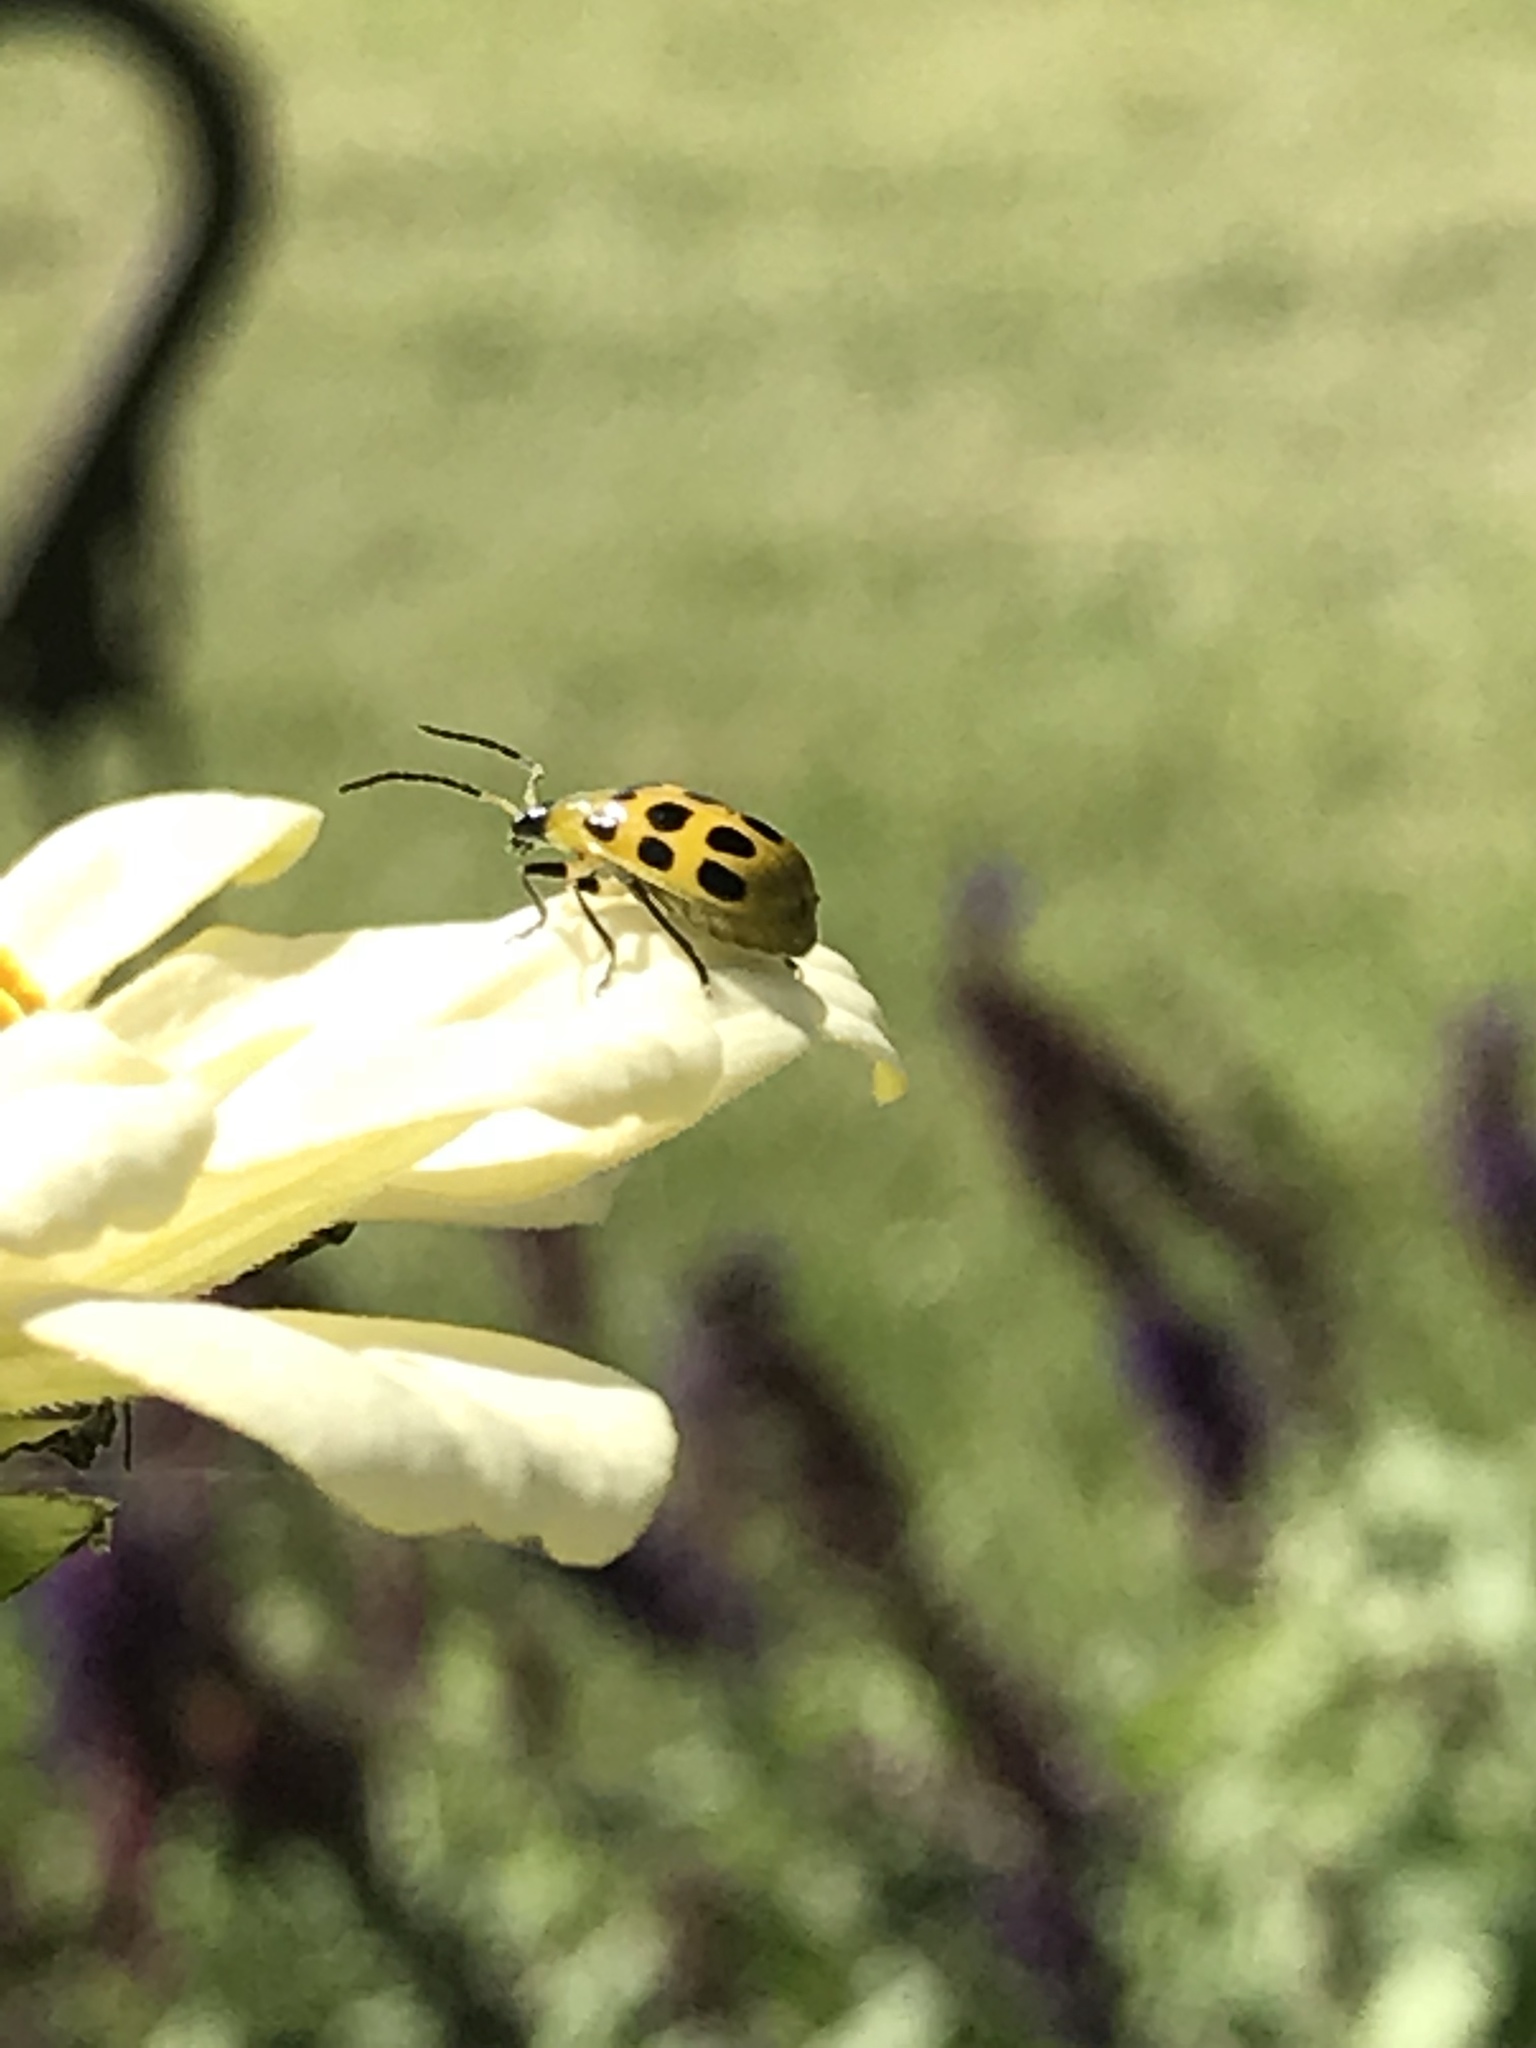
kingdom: Animalia
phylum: Arthropoda
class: Insecta
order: Coleoptera
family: Chrysomelidae
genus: Diabrotica
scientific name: Diabrotica undecimpunctata
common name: Spotted cucumber beetle
